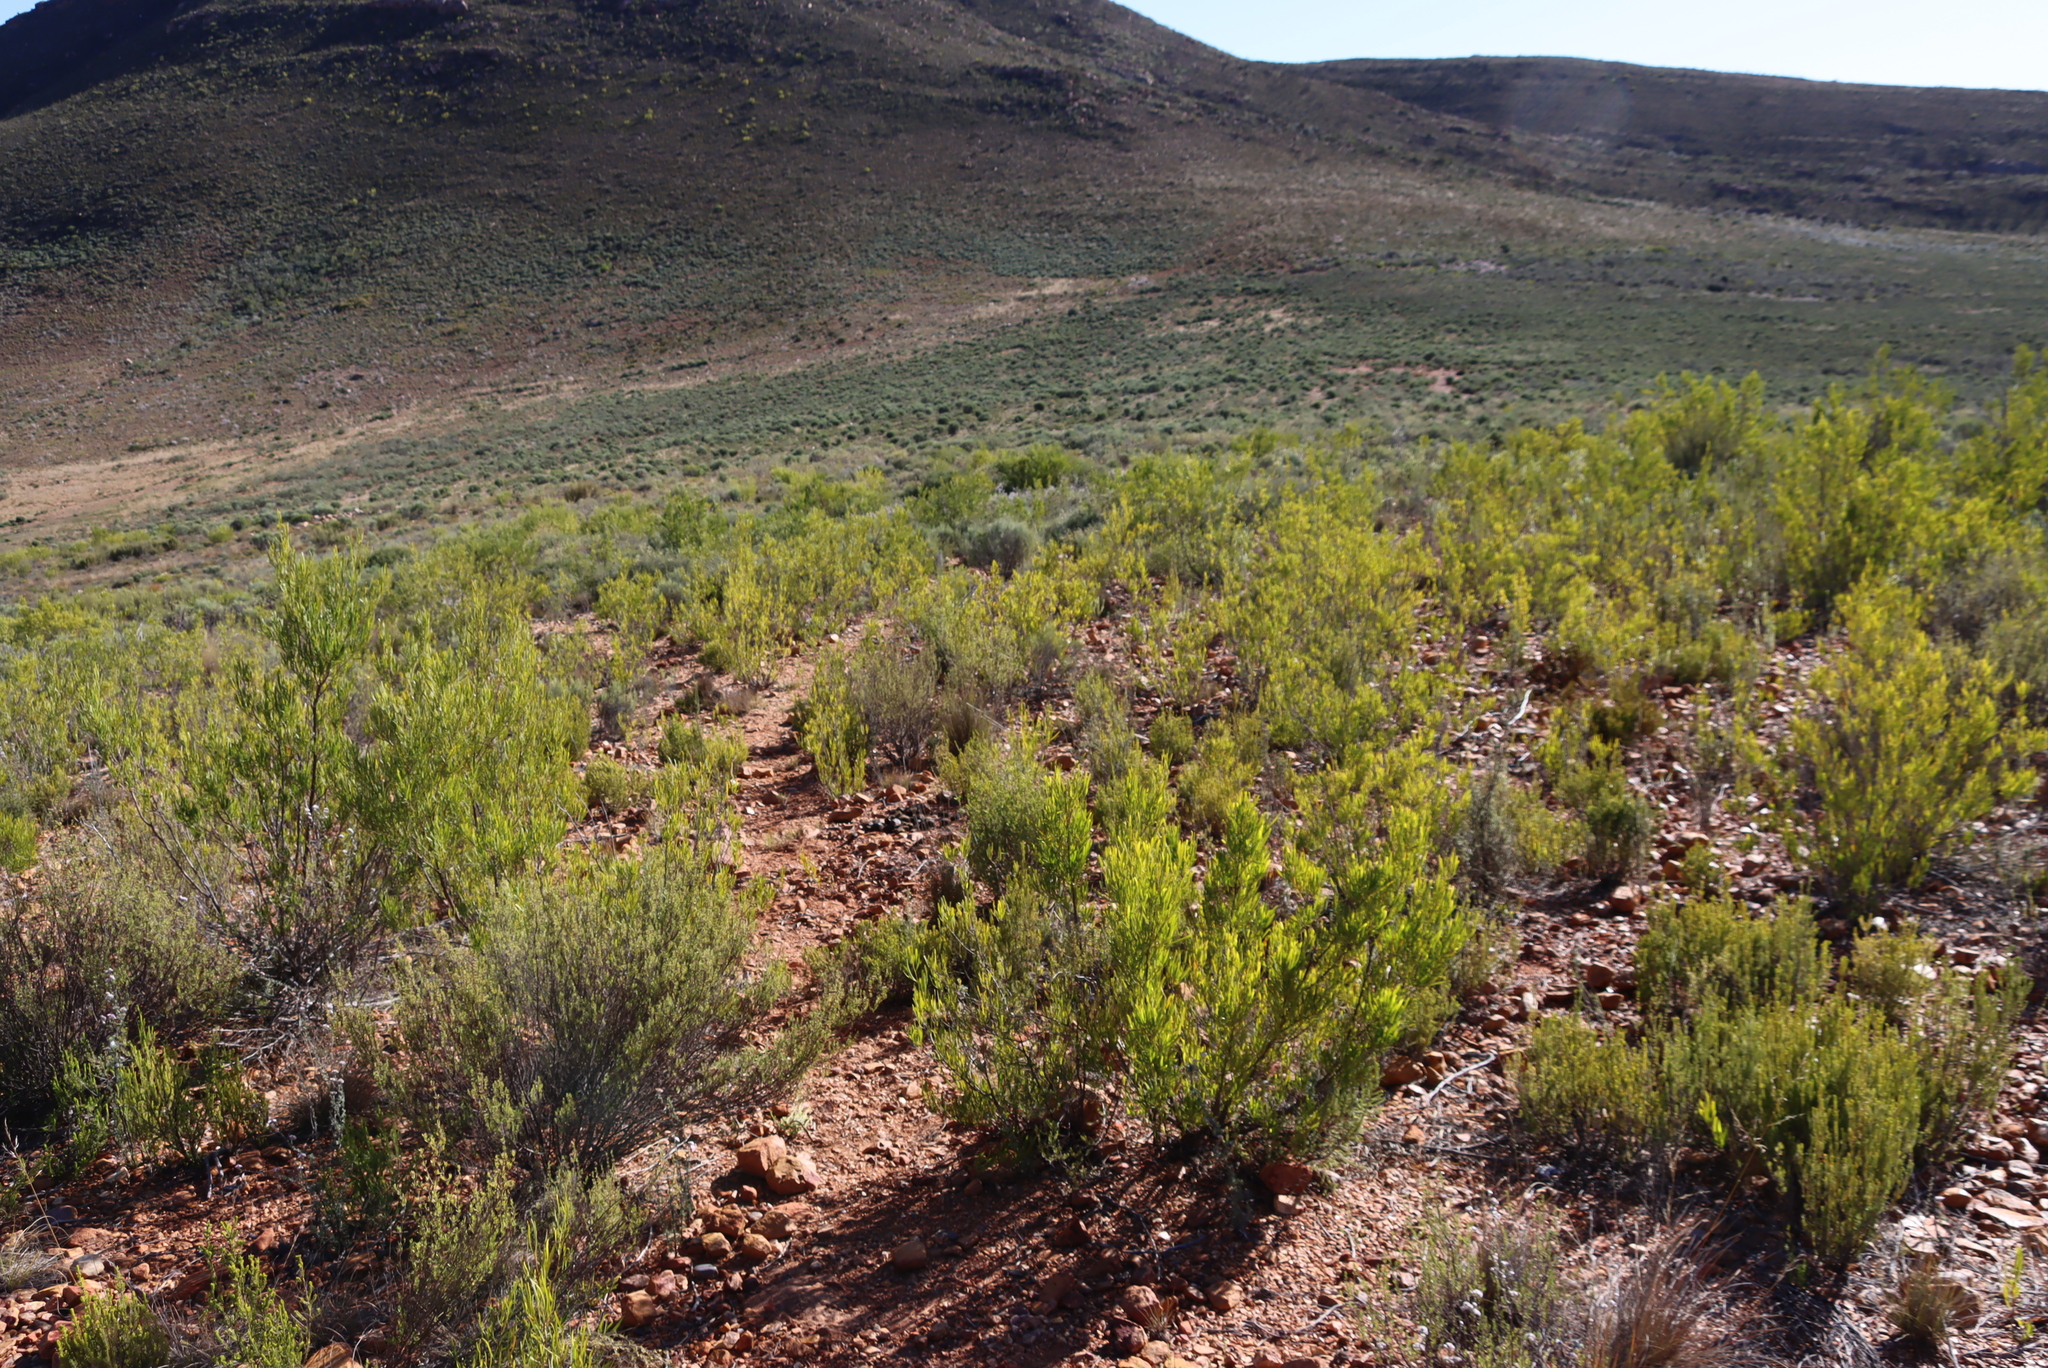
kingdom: Plantae
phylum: Tracheophyta
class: Magnoliopsida
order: Sapindales
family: Sapindaceae
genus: Dodonaea
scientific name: Dodonaea viscosa
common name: Hopbush
